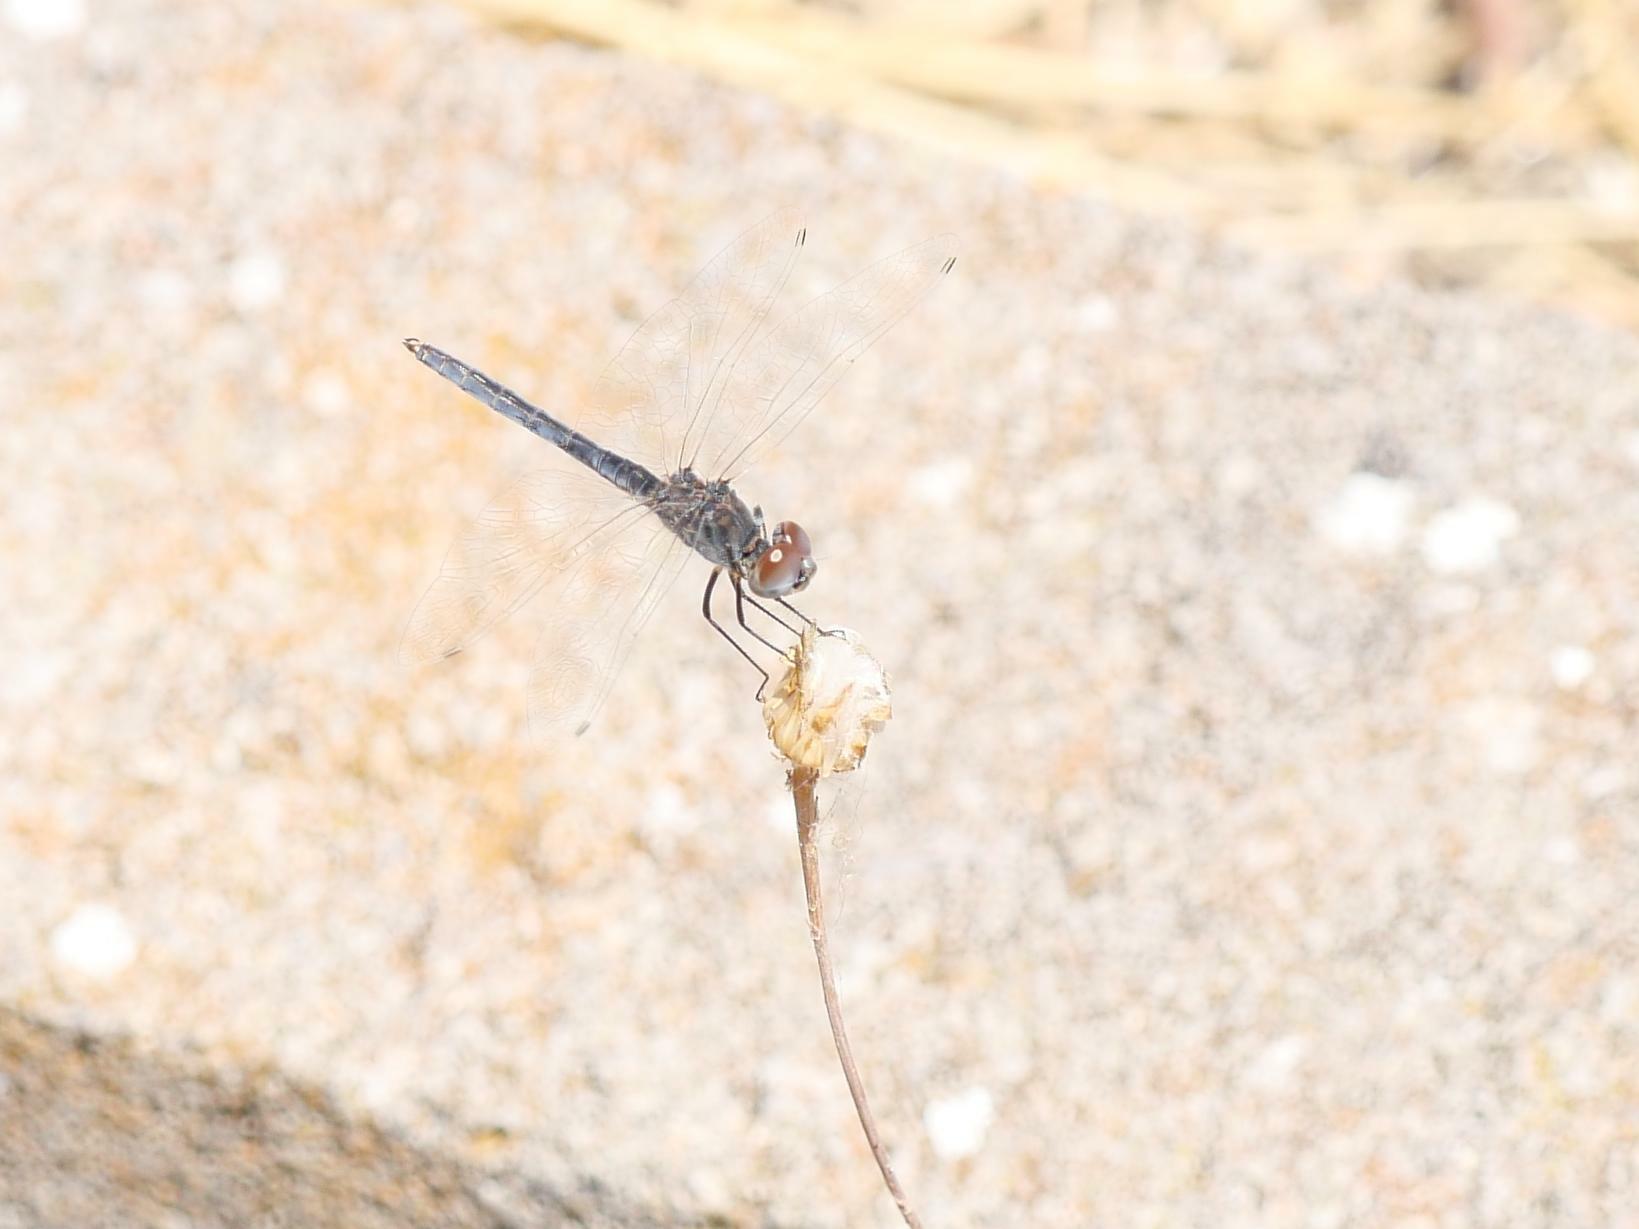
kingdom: Animalia
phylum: Arthropoda
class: Insecta
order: Odonata
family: Libellulidae
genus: Selysiothemis
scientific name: Selysiothemis nigra
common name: Black pennant
